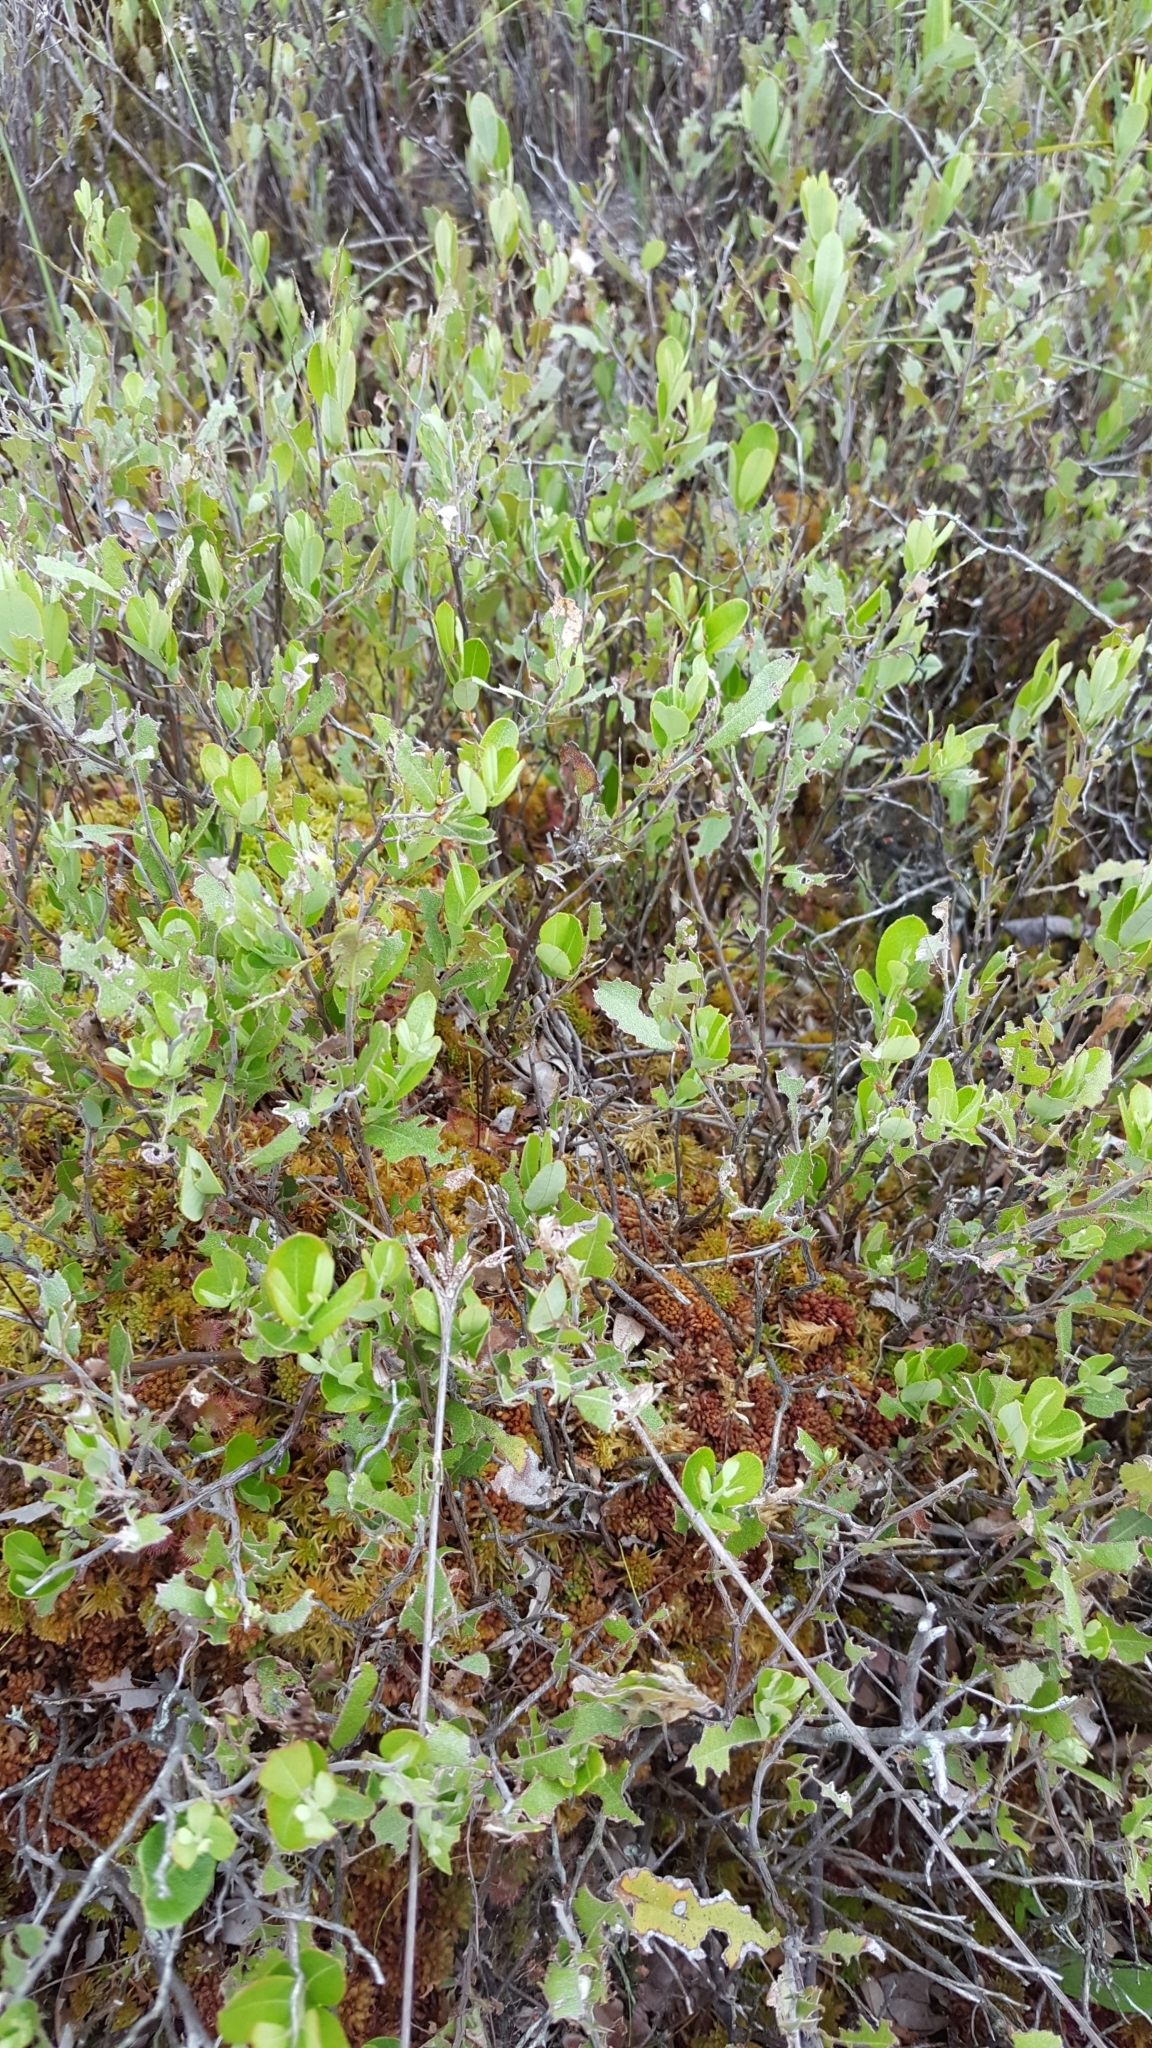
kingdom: Plantae
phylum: Tracheophyta
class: Magnoliopsida
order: Ericales
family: Ericaceae
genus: Chamaedaphne
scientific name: Chamaedaphne calyculata
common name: Leatherleaf
